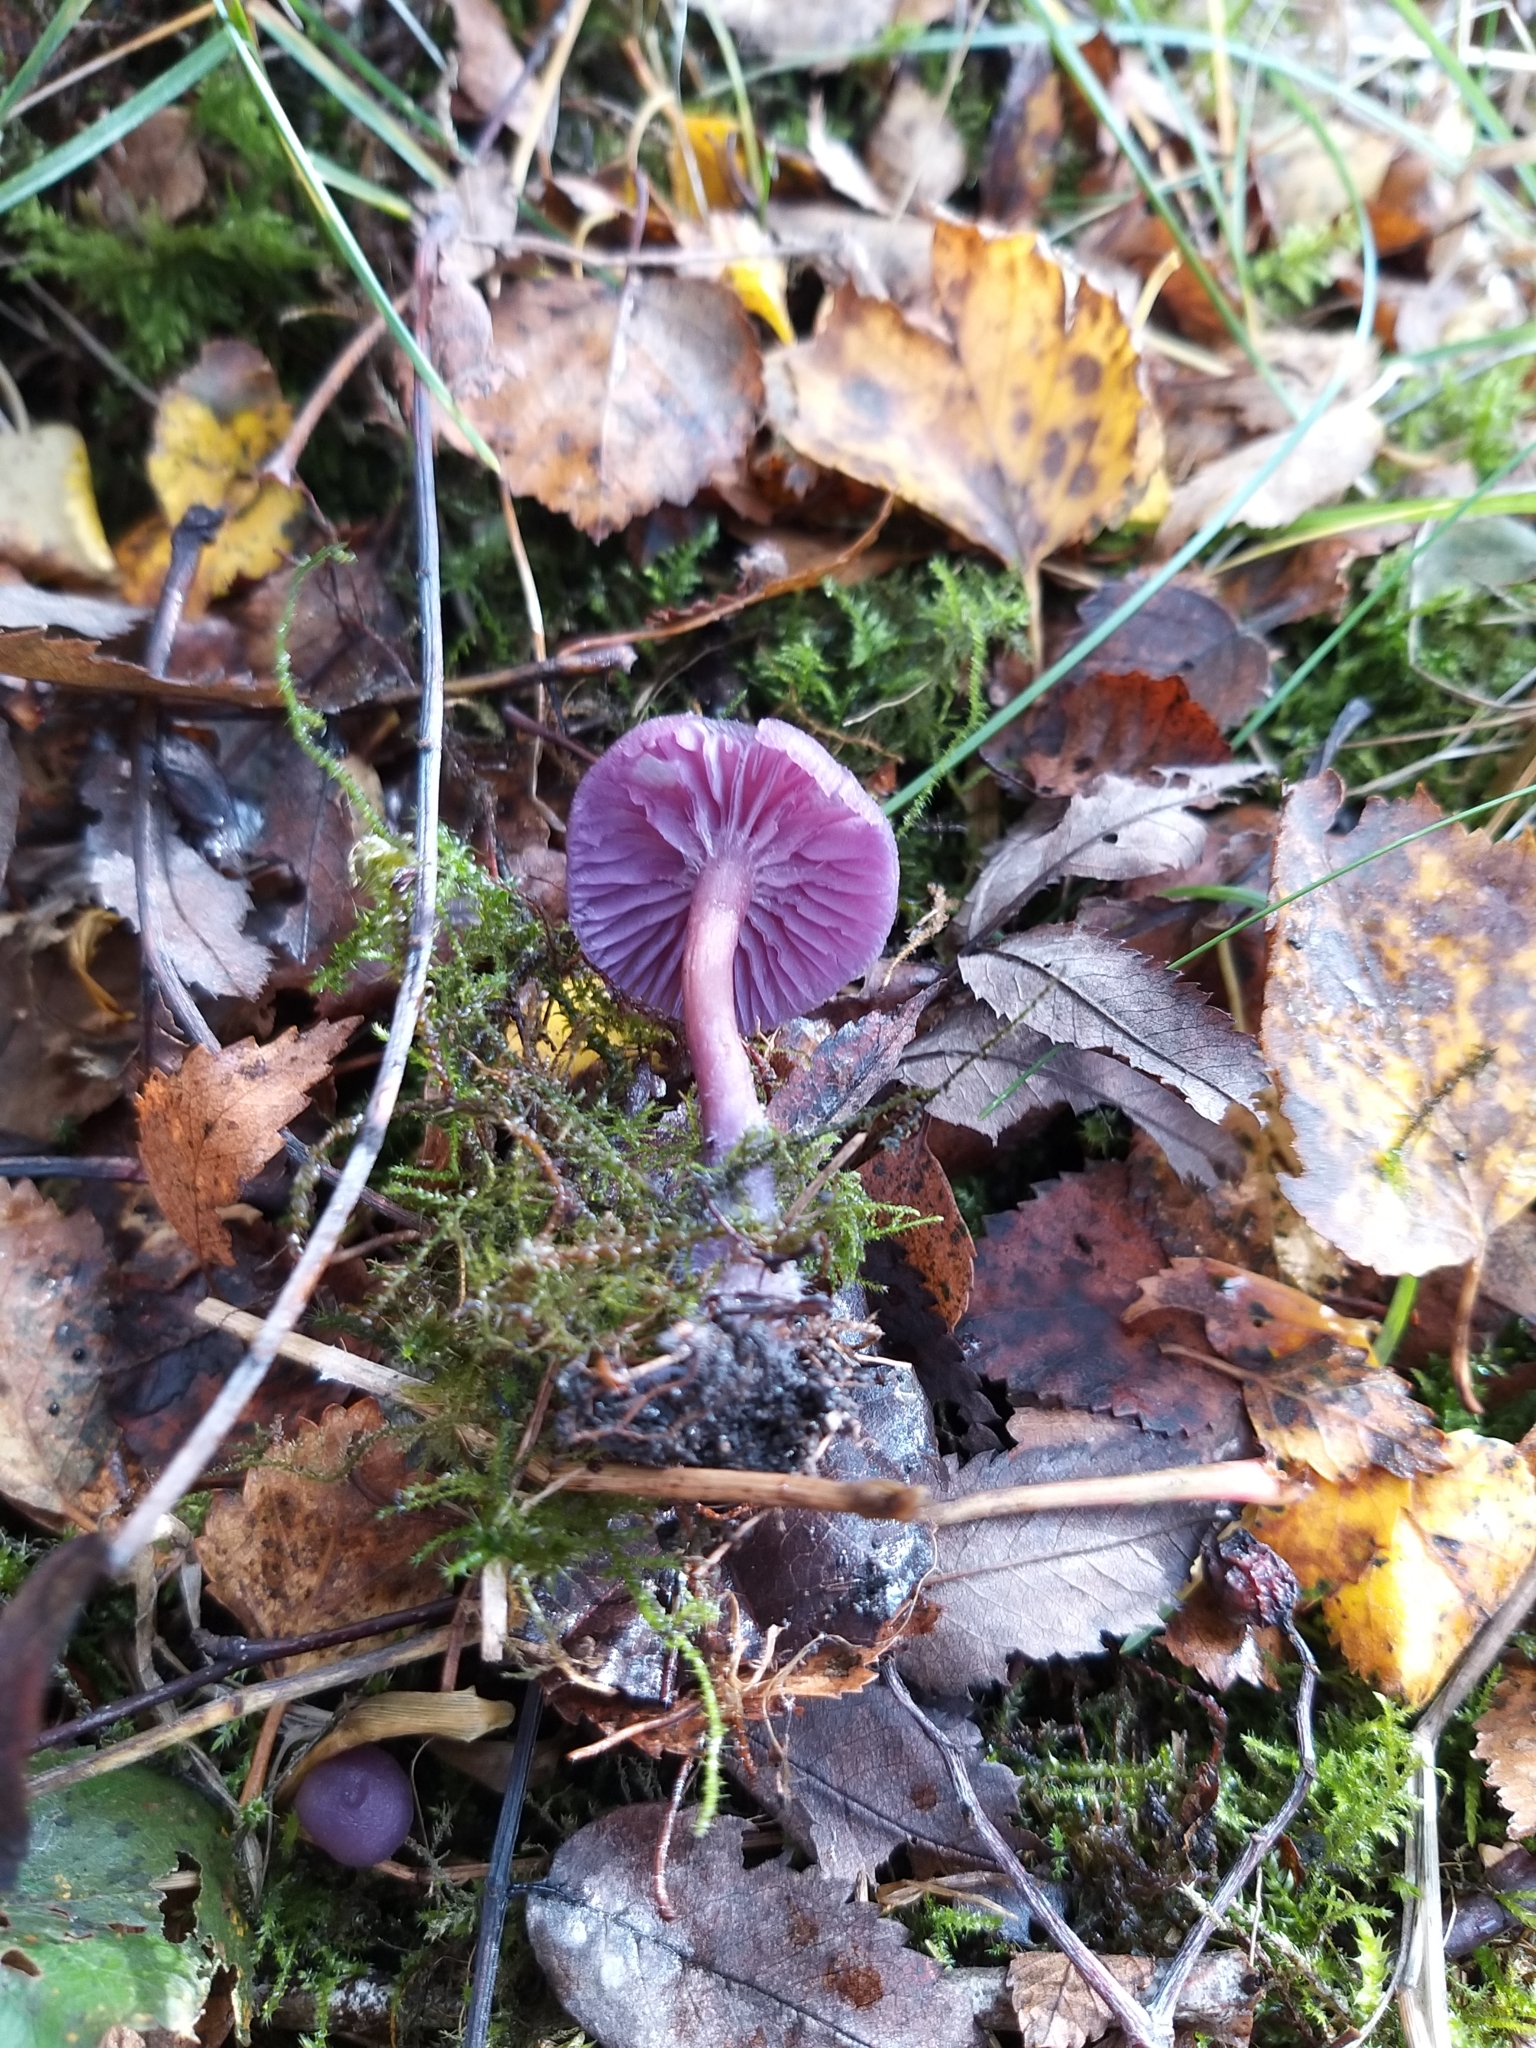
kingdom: Fungi
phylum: Basidiomycota
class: Agaricomycetes
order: Agaricales
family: Hydnangiaceae
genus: Laccaria
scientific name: Laccaria amethystina
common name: Amethyst deceiver
